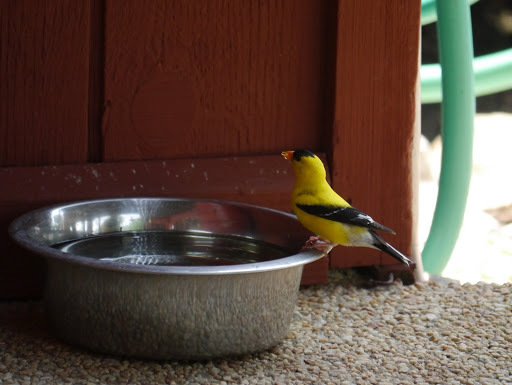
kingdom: Animalia
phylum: Chordata
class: Aves
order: Passeriformes
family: Fringillidae
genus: Spinus
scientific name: Spinus tristis
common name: American goldfinch
